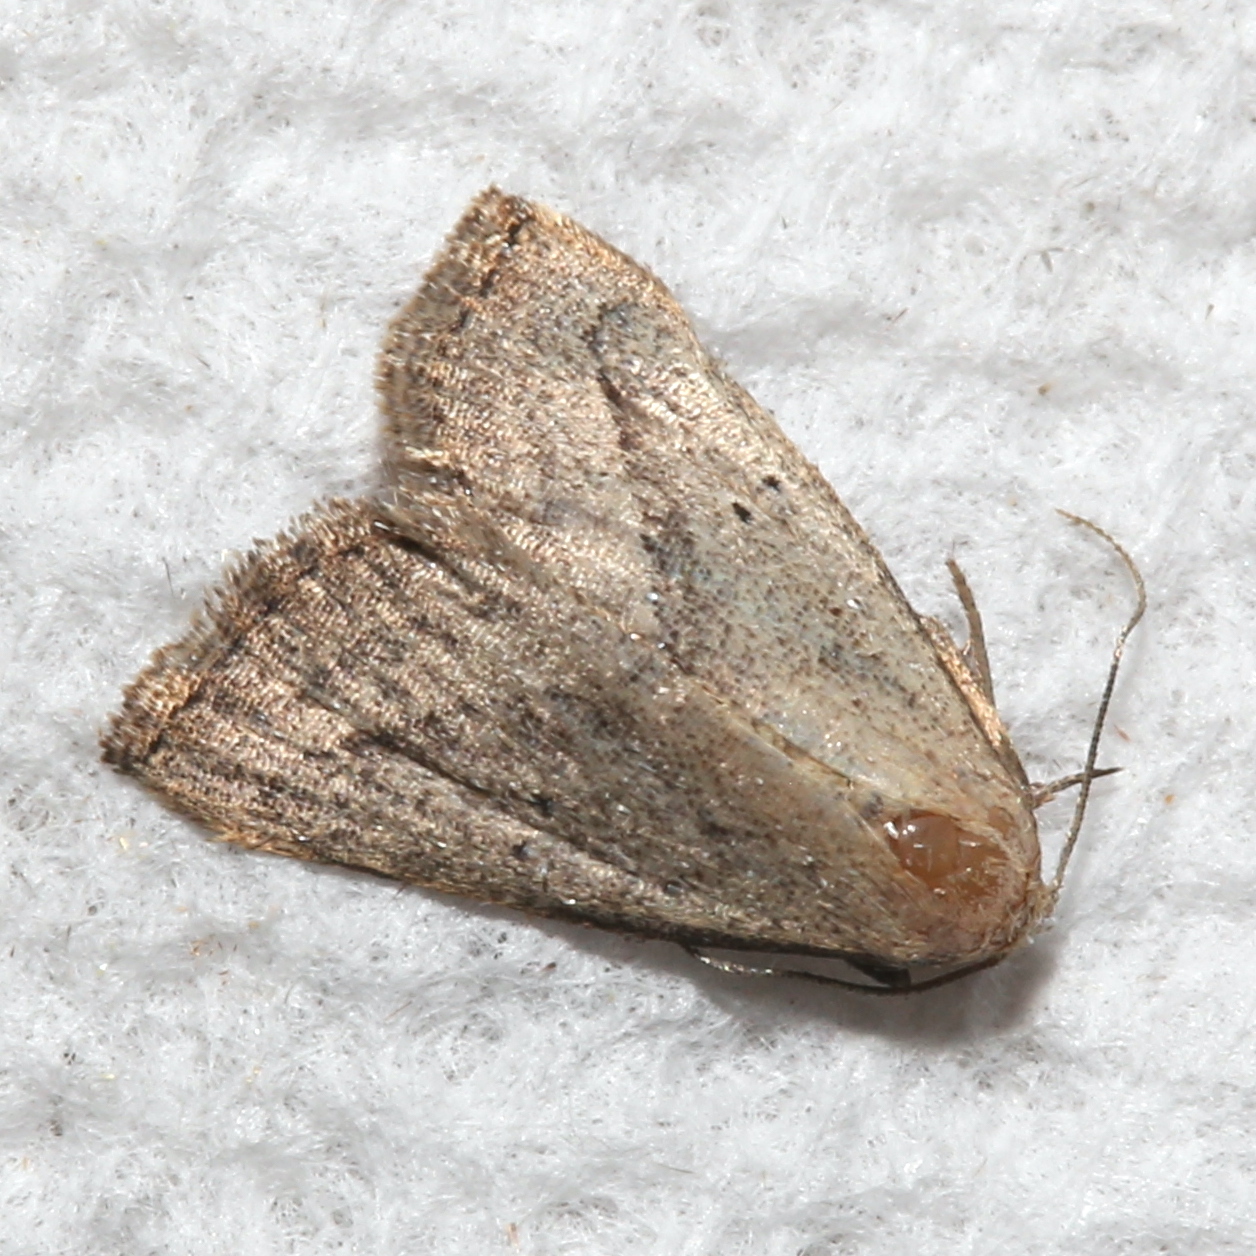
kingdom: Animalia
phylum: Arthropoda
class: Insecta
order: Lepidoptera
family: Erebidae
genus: Macrochilo
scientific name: Macrochilo hypocritalis
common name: Twin-dotted owlet
